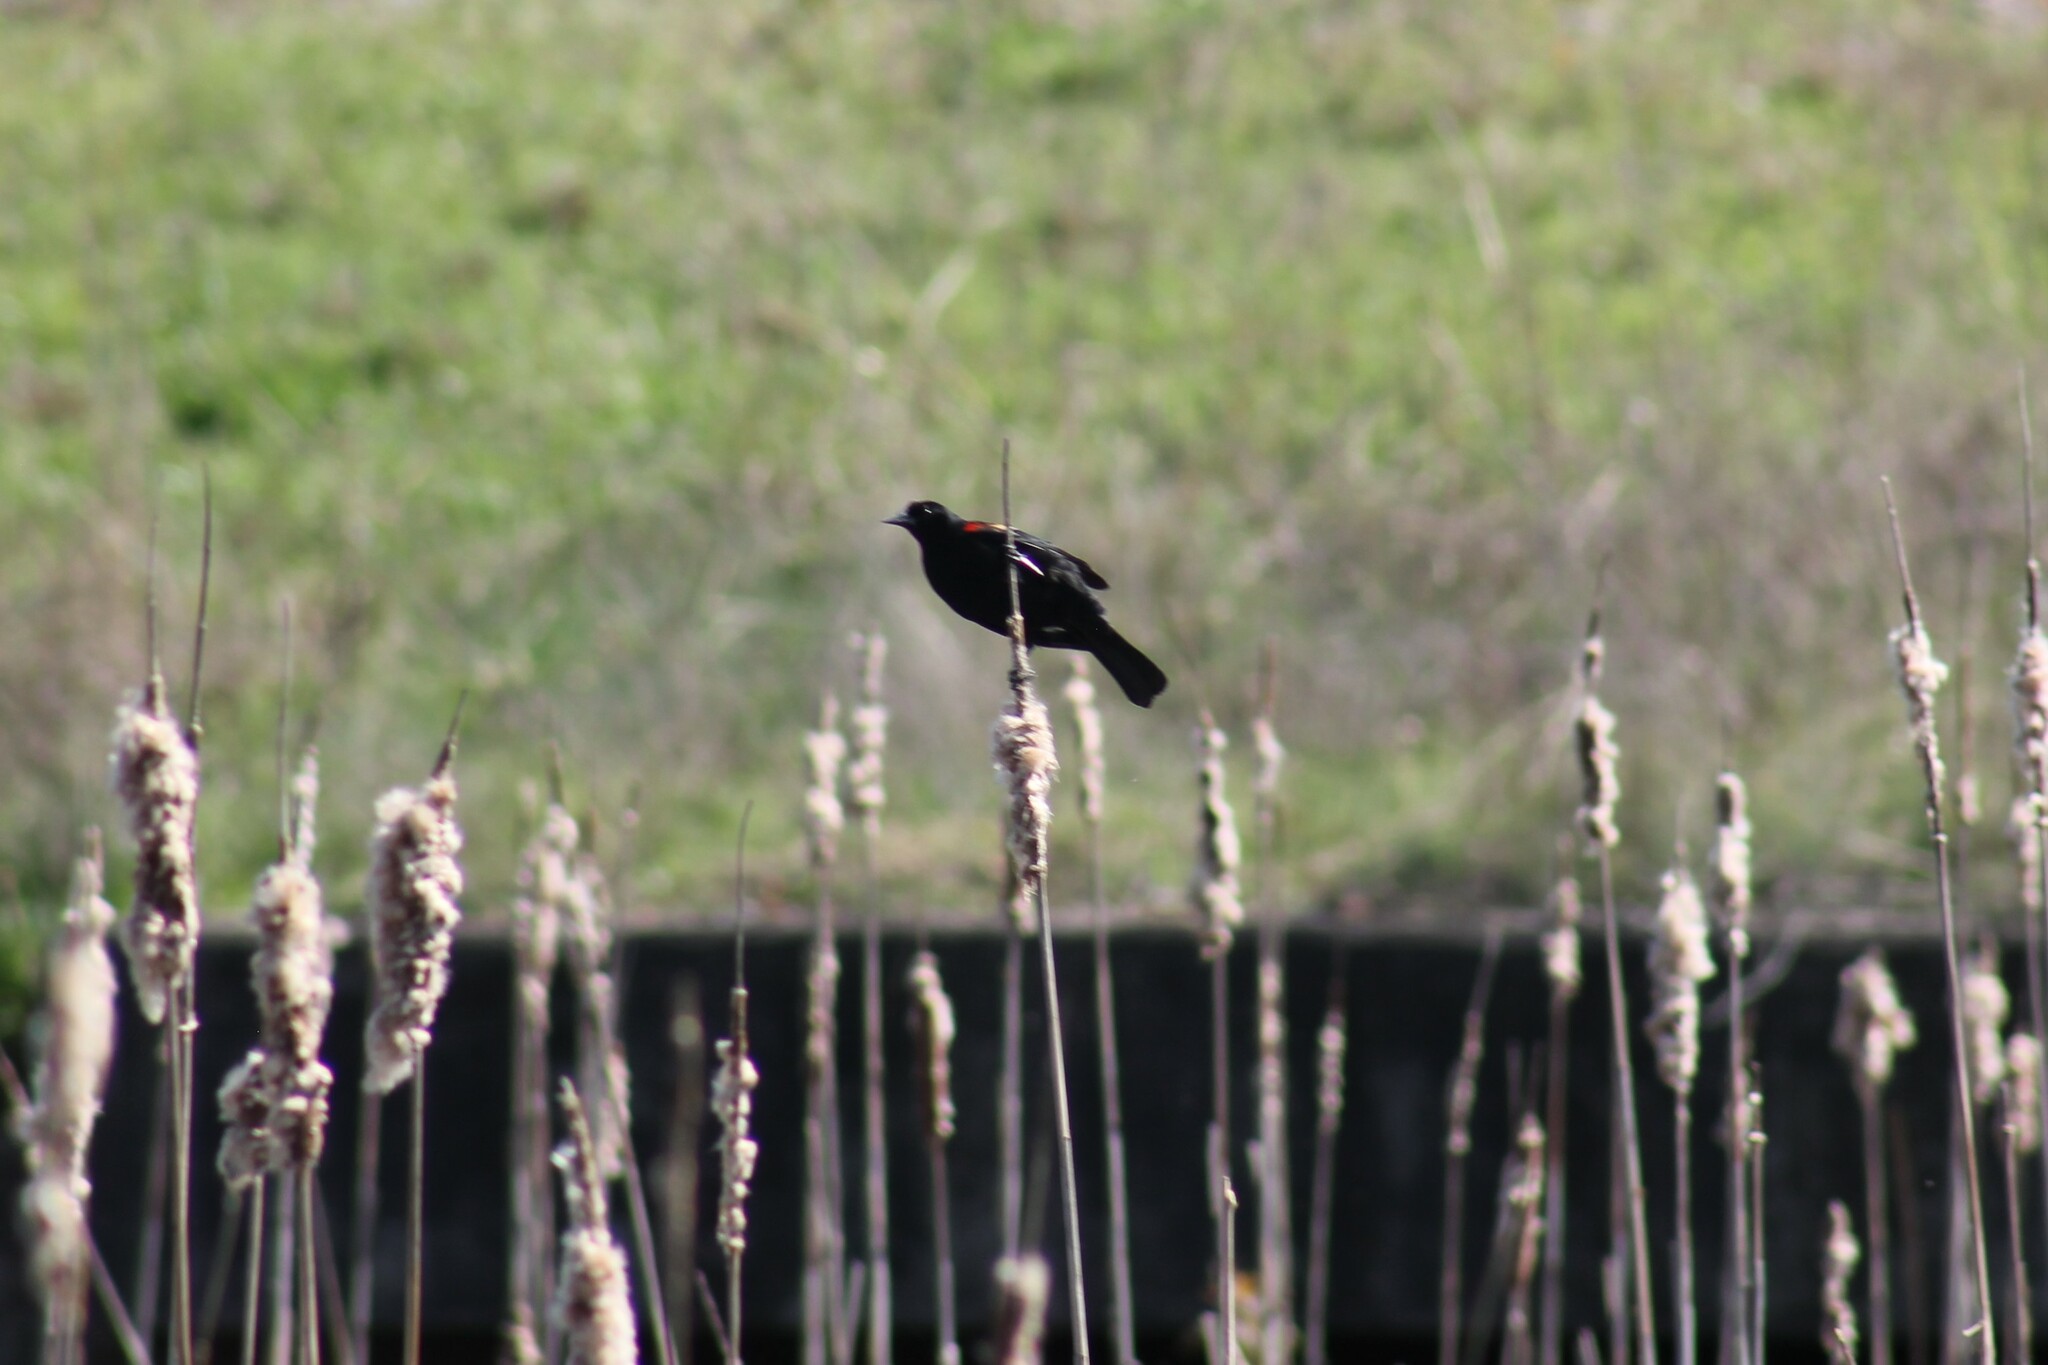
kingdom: Animalia
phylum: Chordata
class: Aves
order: Passeriformes
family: Icteridae
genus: Agelaius
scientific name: Agelaius phoeniceus
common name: Red-winged blackbird
